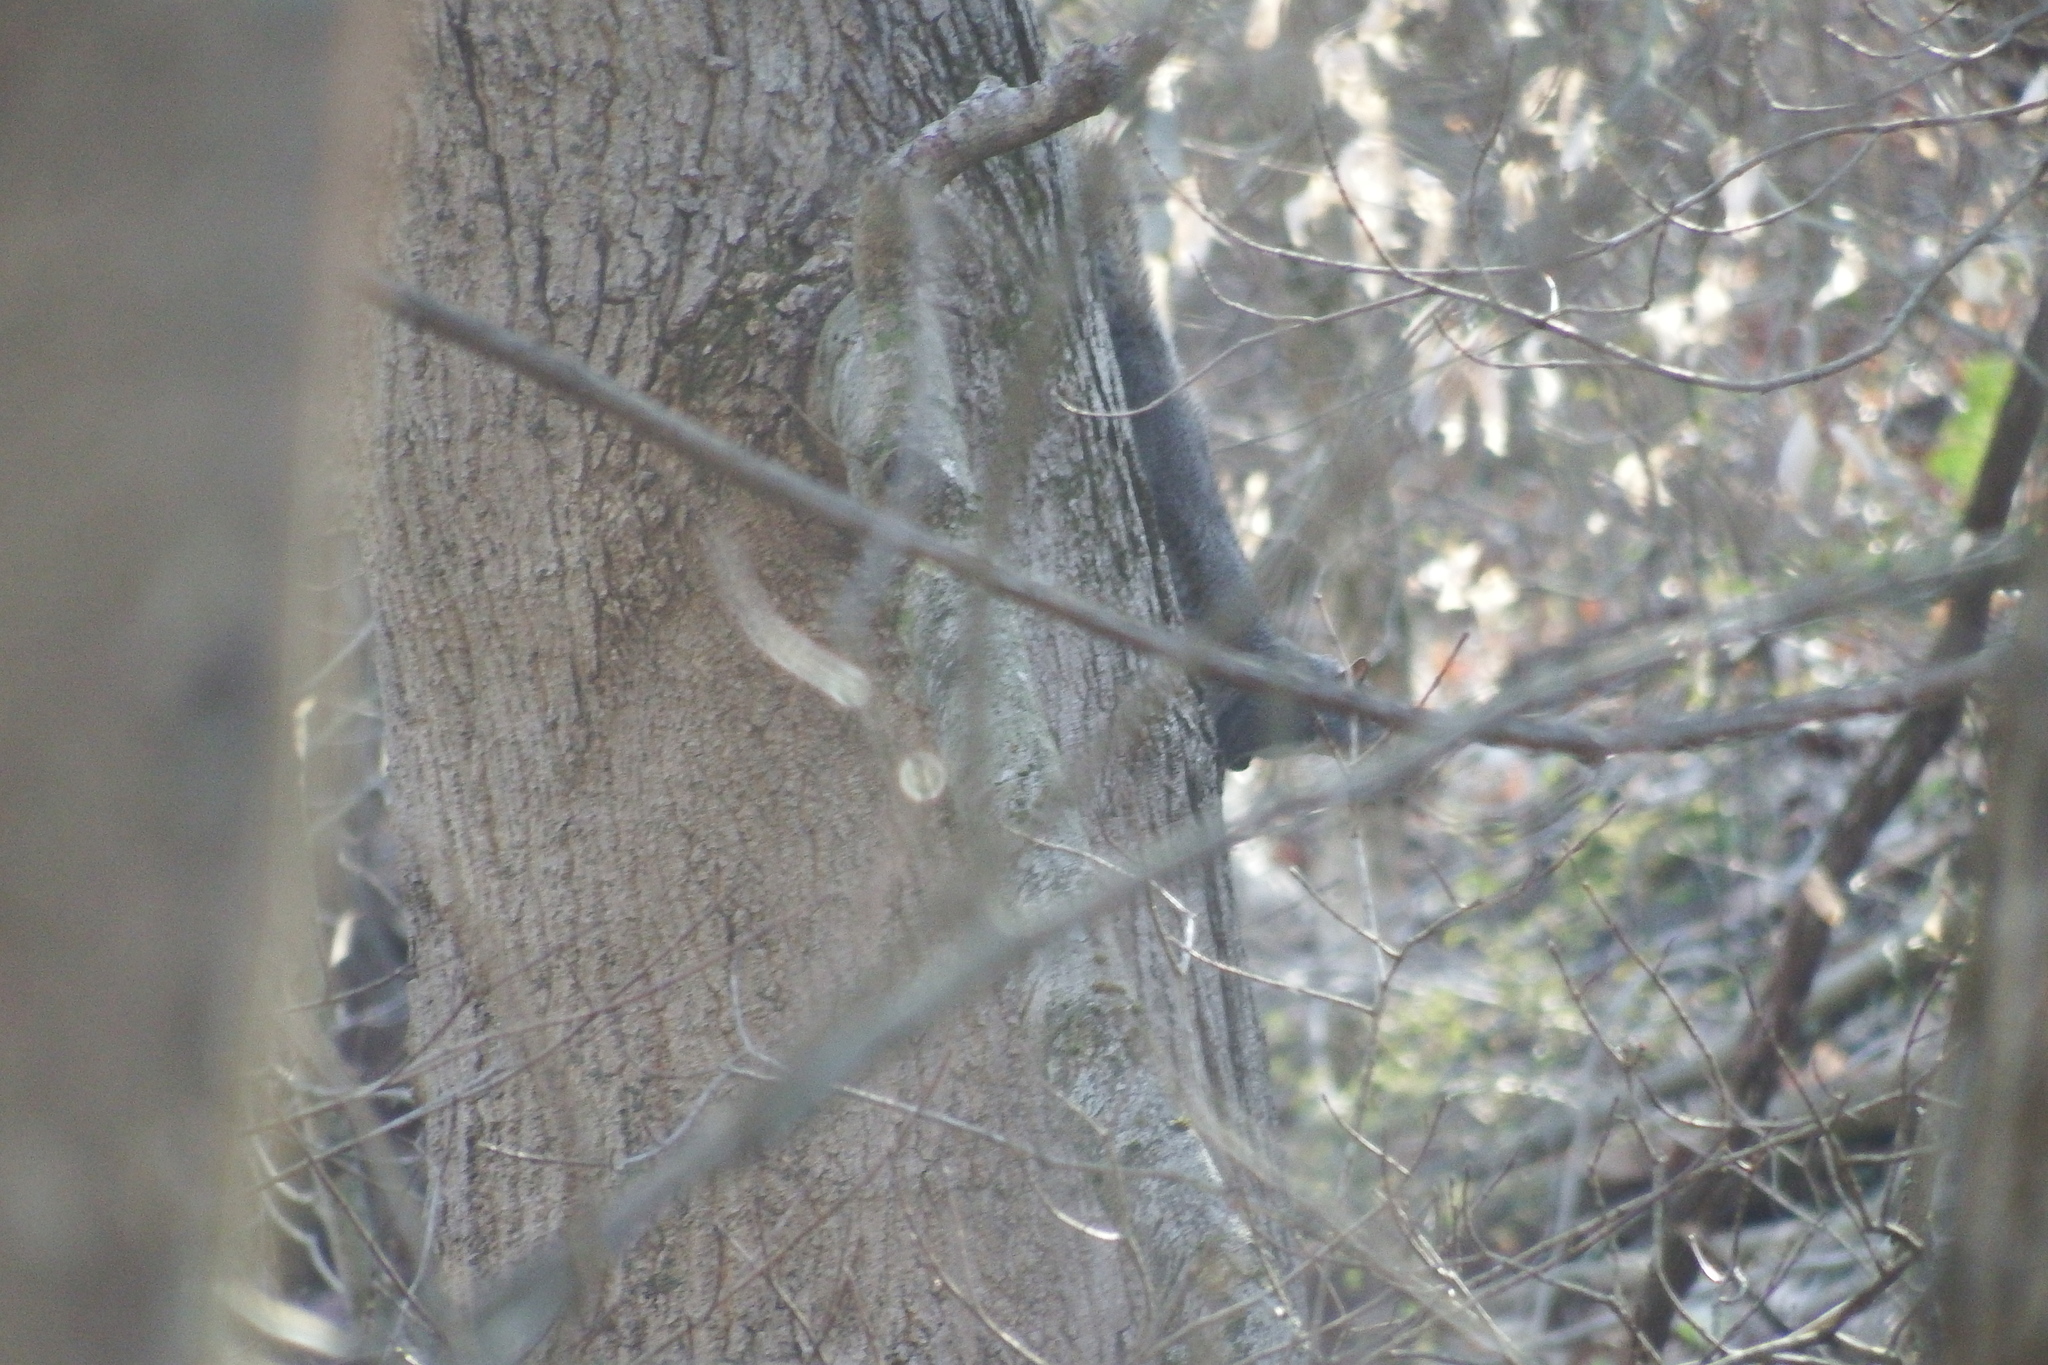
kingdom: Animalia
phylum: Chordata
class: Mammalia
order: Rodentia
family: Sciuridae
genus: Sciurus
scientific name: Sciurus carolinensis
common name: Eastern gray squirrel
